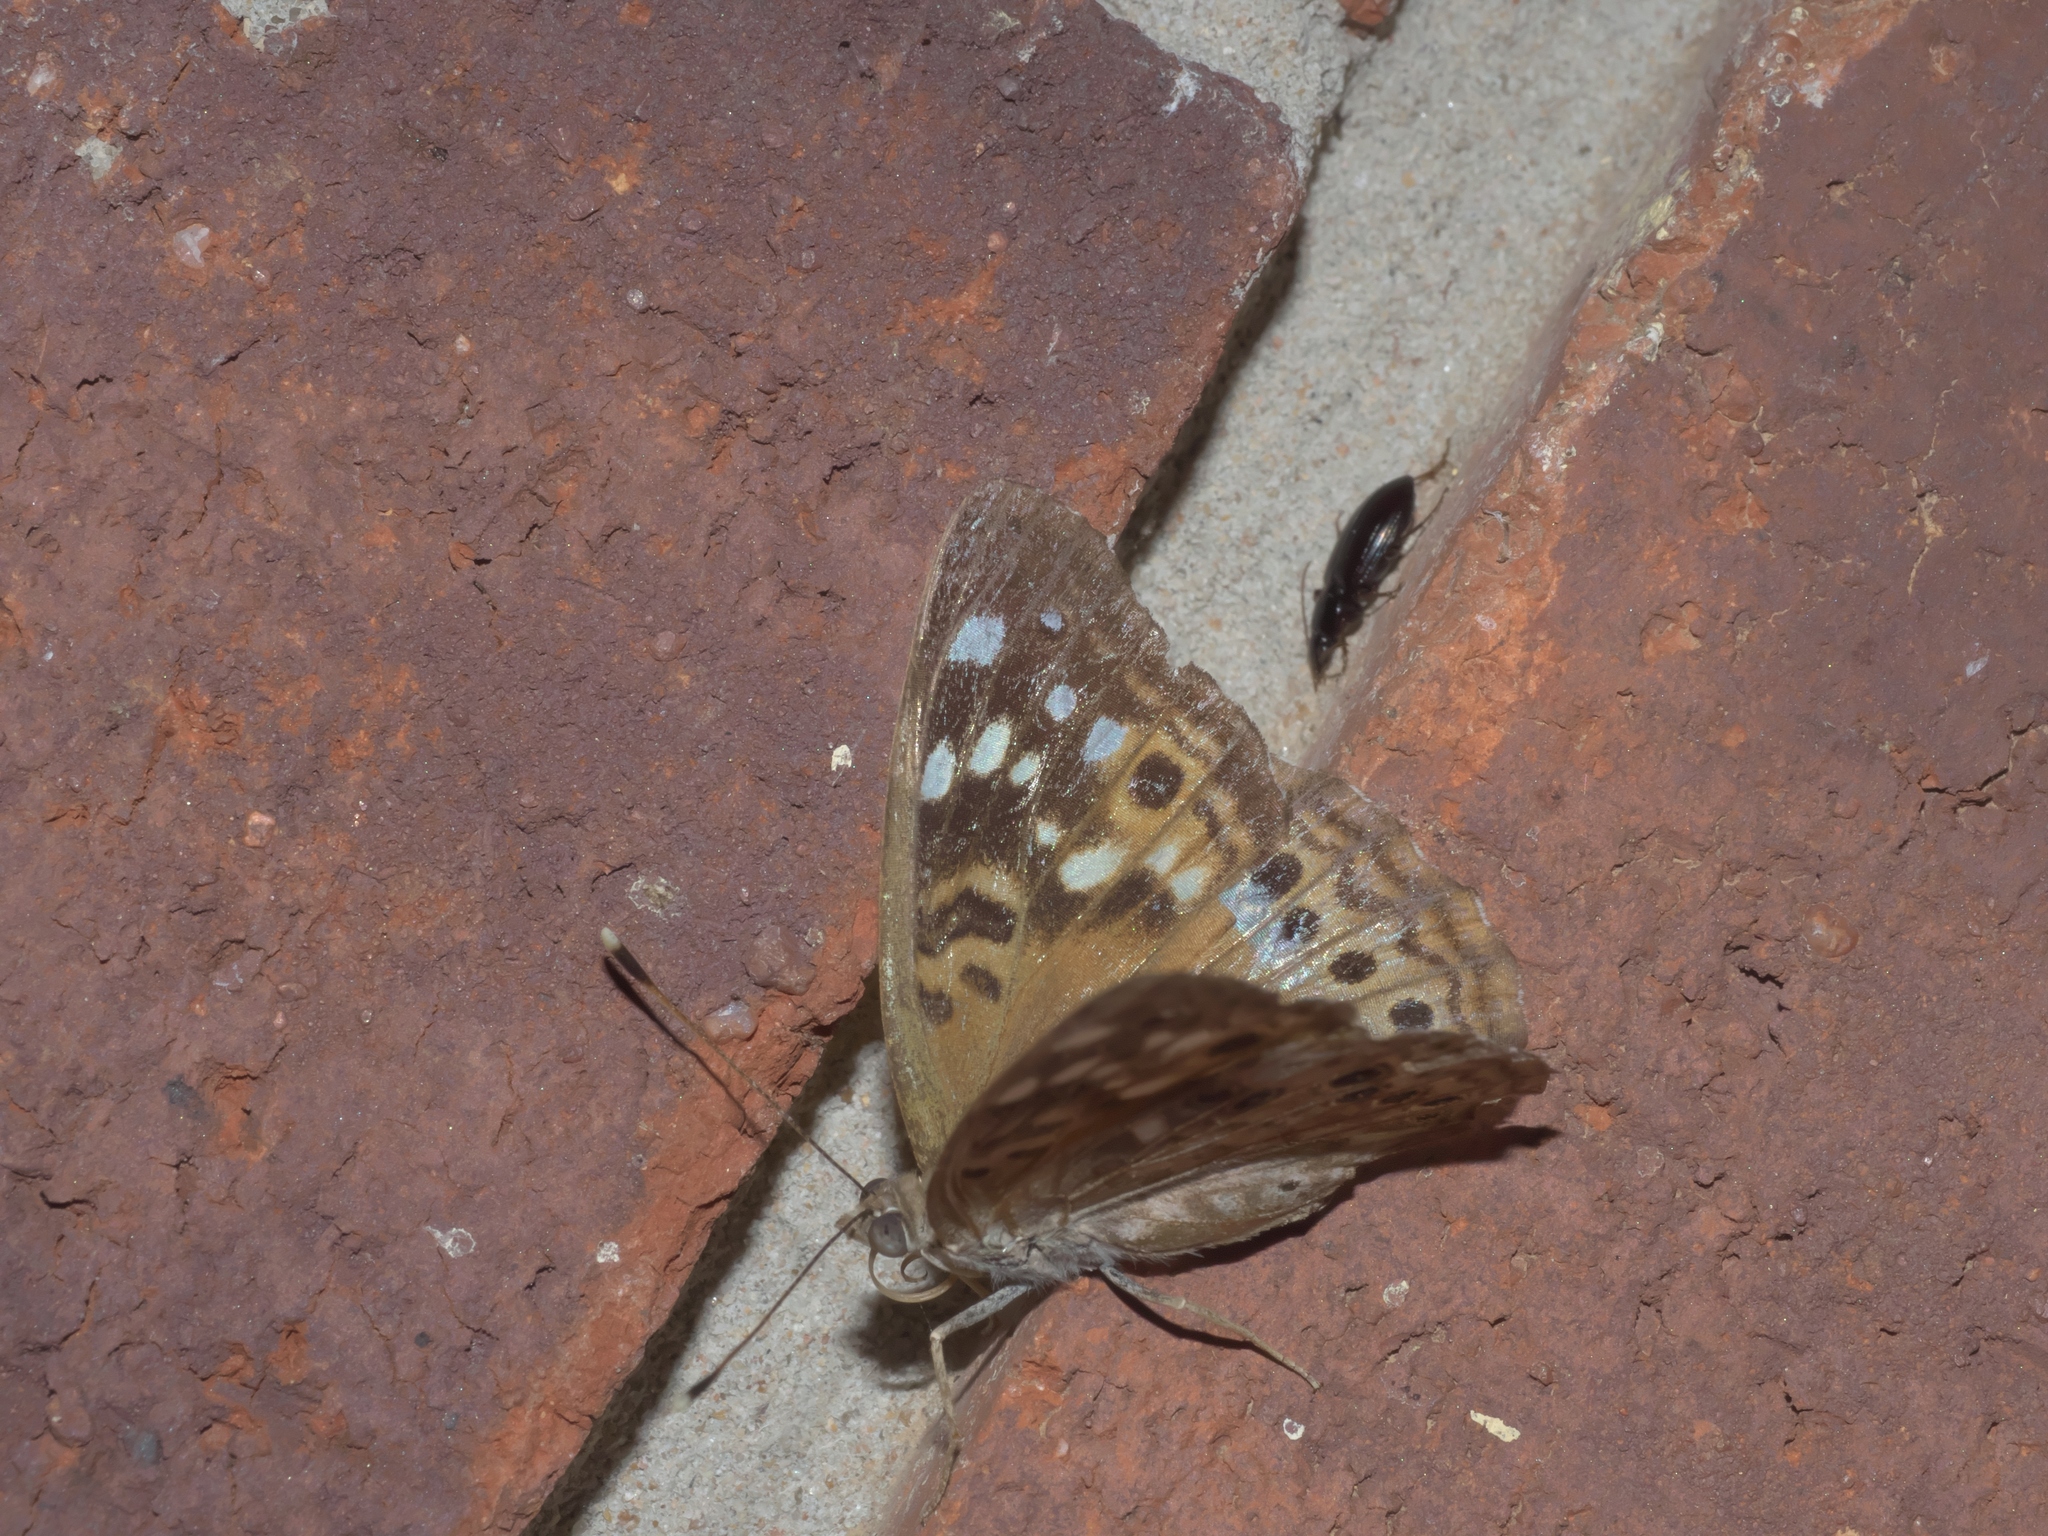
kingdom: Animalia
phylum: Arthropoda
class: Insecta
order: Lepidoptera
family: Nymphalidae
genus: Asterocampa
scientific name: Asterocampa celtis
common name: Hackberry emperor
